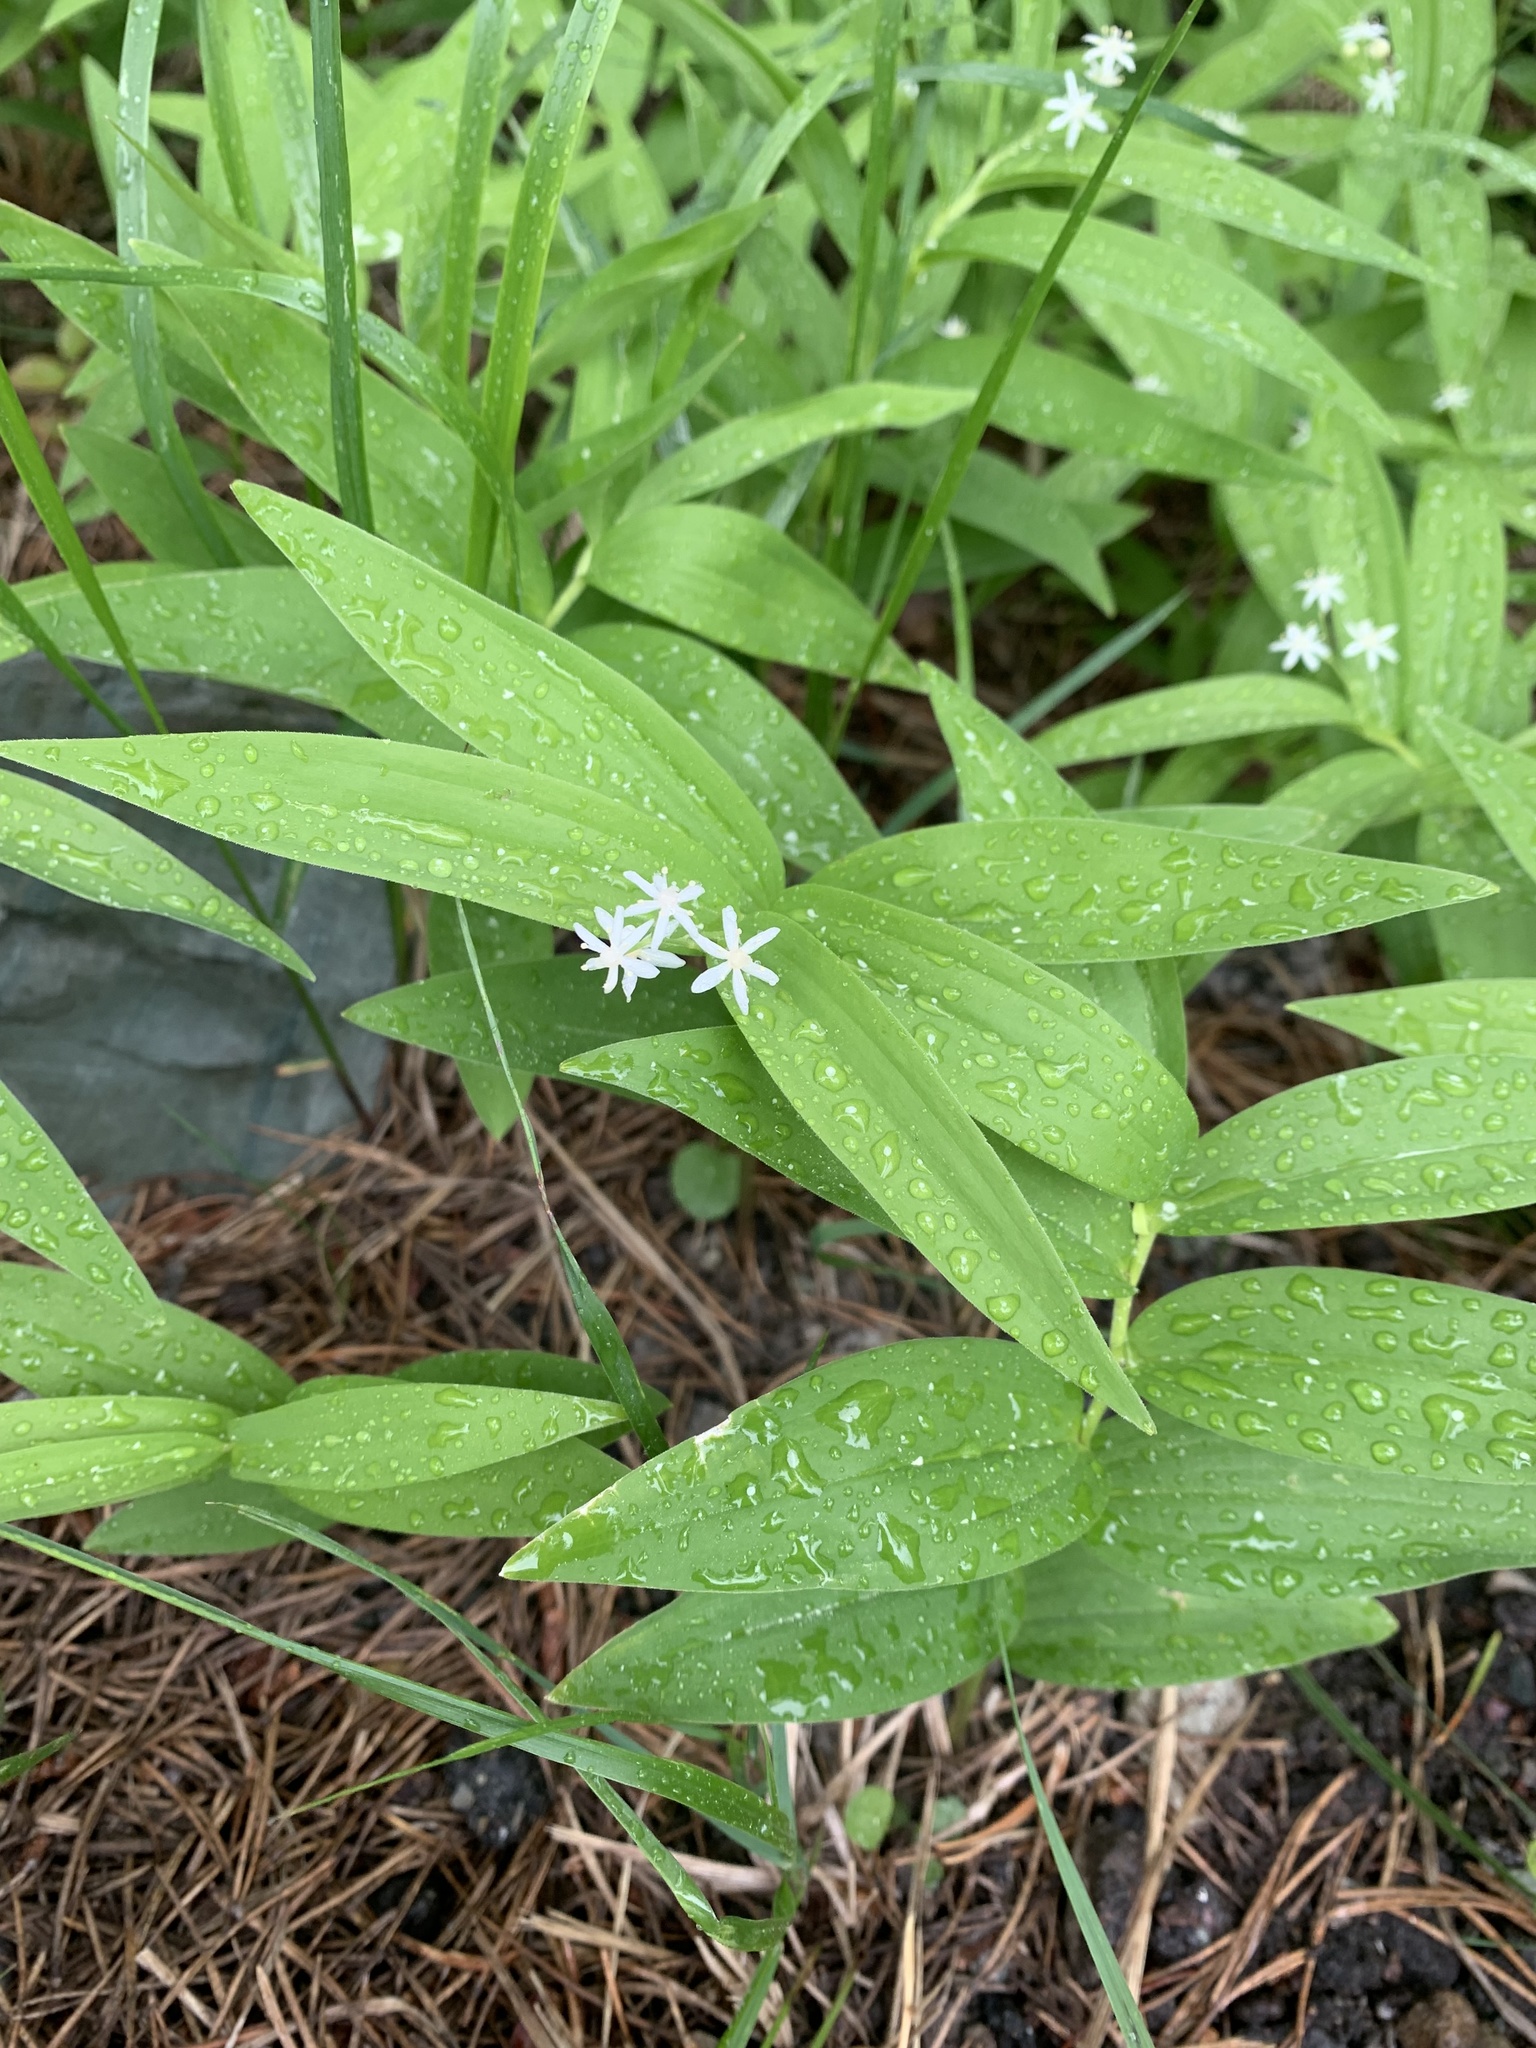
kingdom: Plantae
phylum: Tracheophyta
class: Liliopsida
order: Asparagales
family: Asparagaceae
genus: Maianthemum
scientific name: Maianthemum stellatum
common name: Little false solomon's seal
